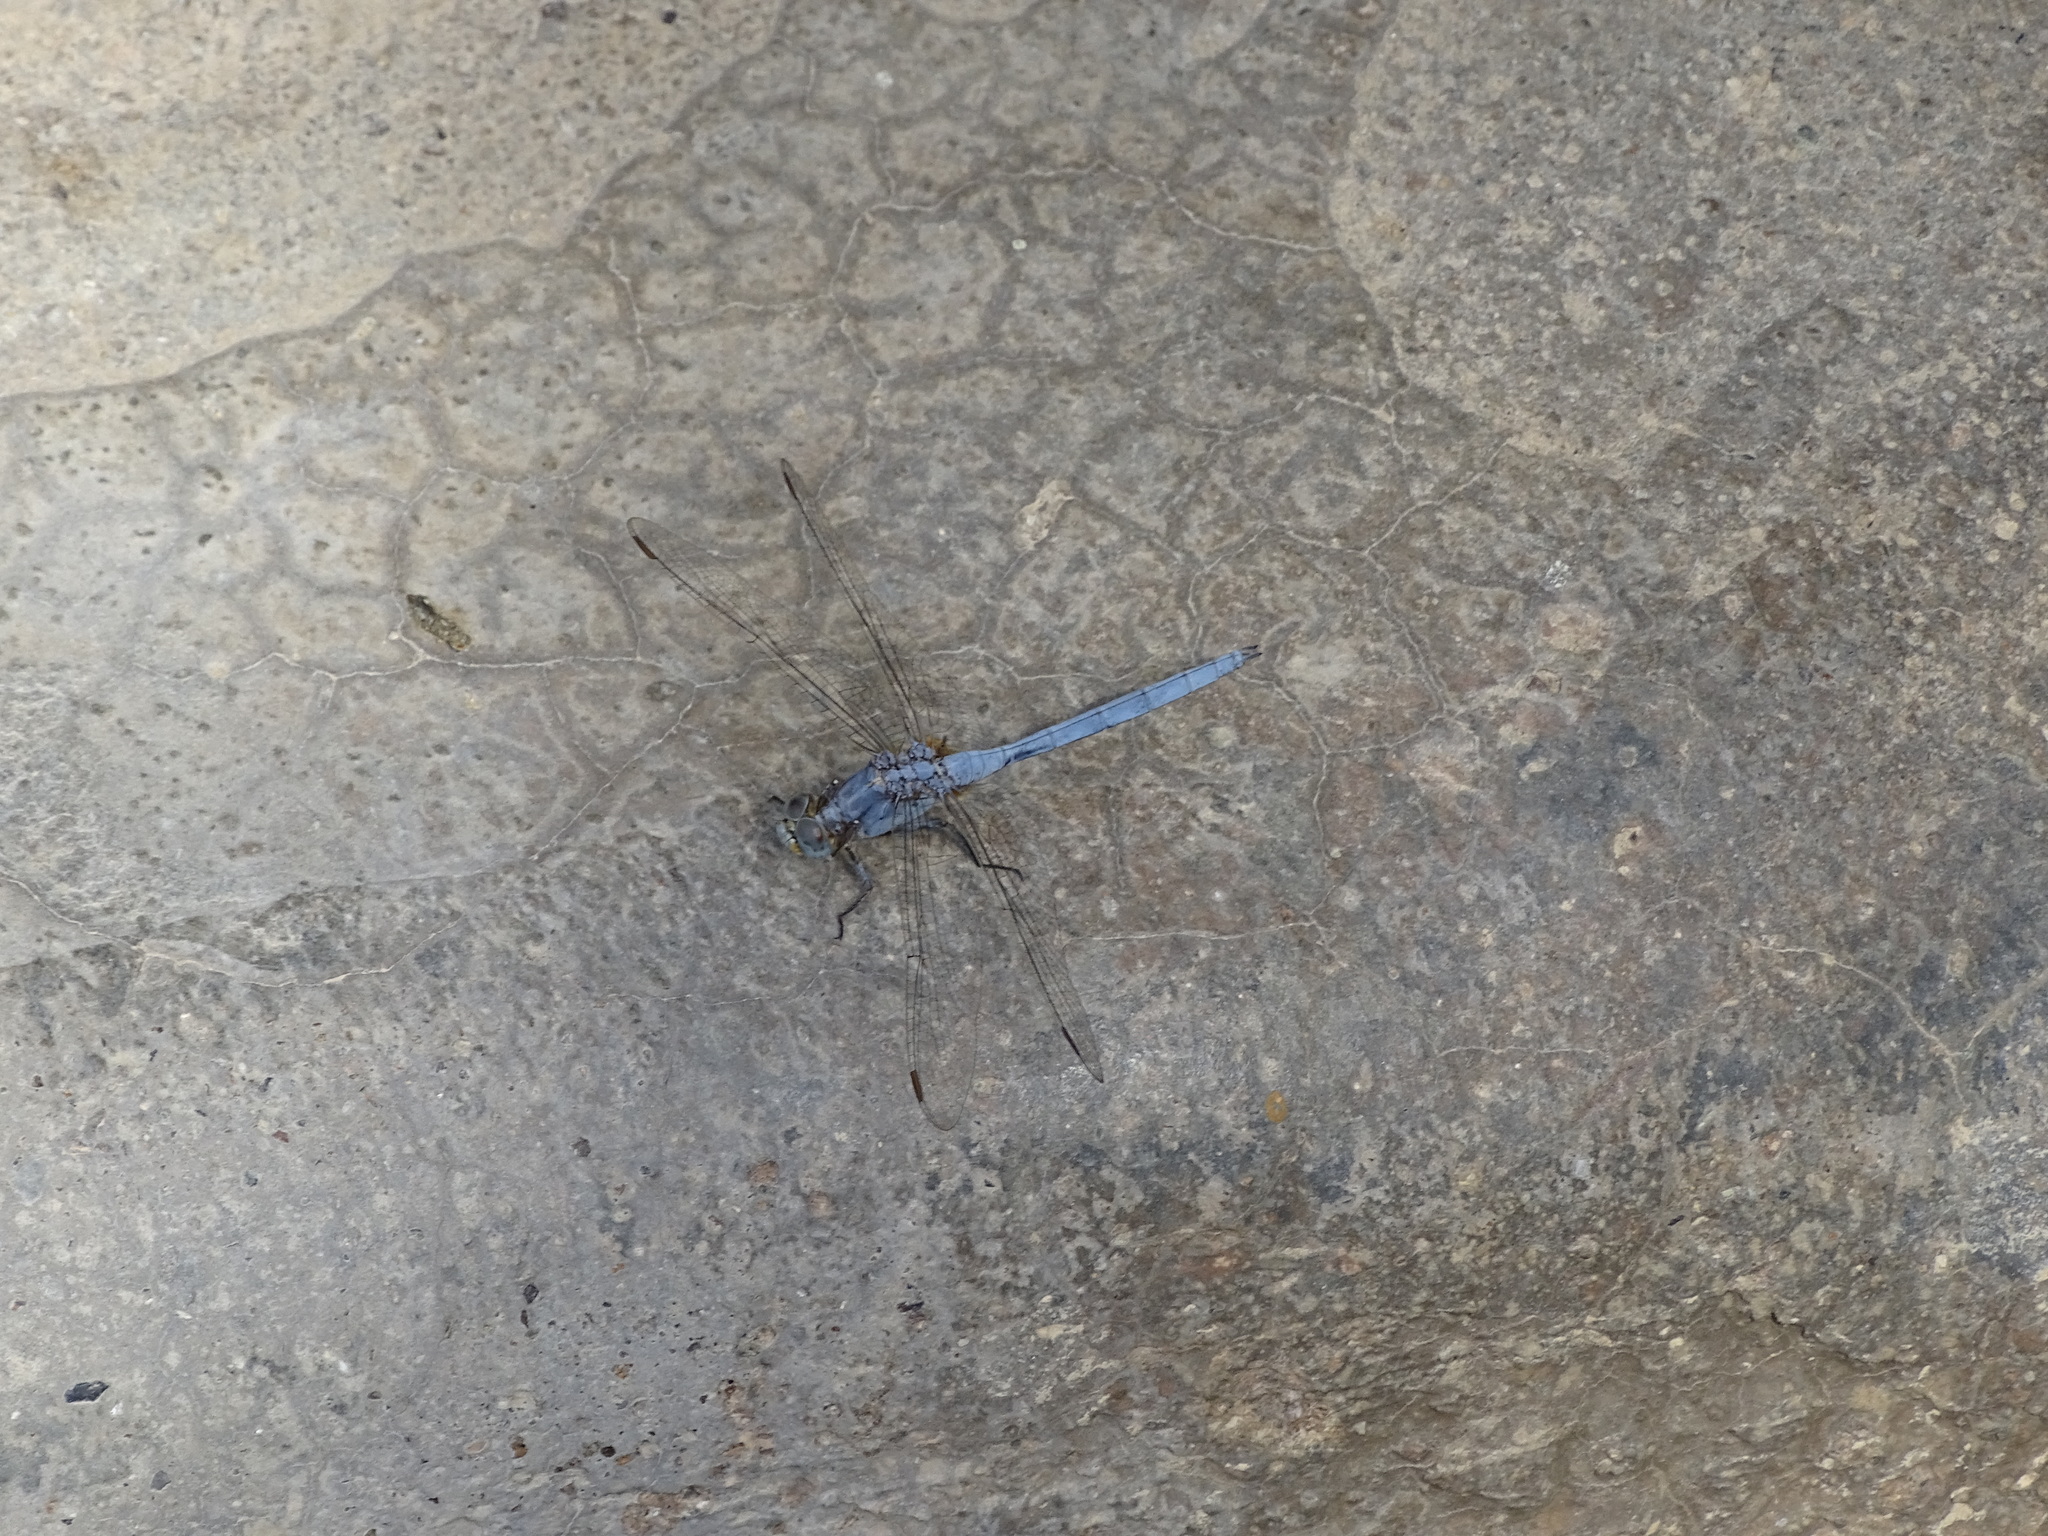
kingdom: Animalia
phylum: Arthropoda
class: Insecta
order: Odonata
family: Libellulidae
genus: Orthetrum
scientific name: Orthetrum chrysostigma
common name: Epaulet skimmer
